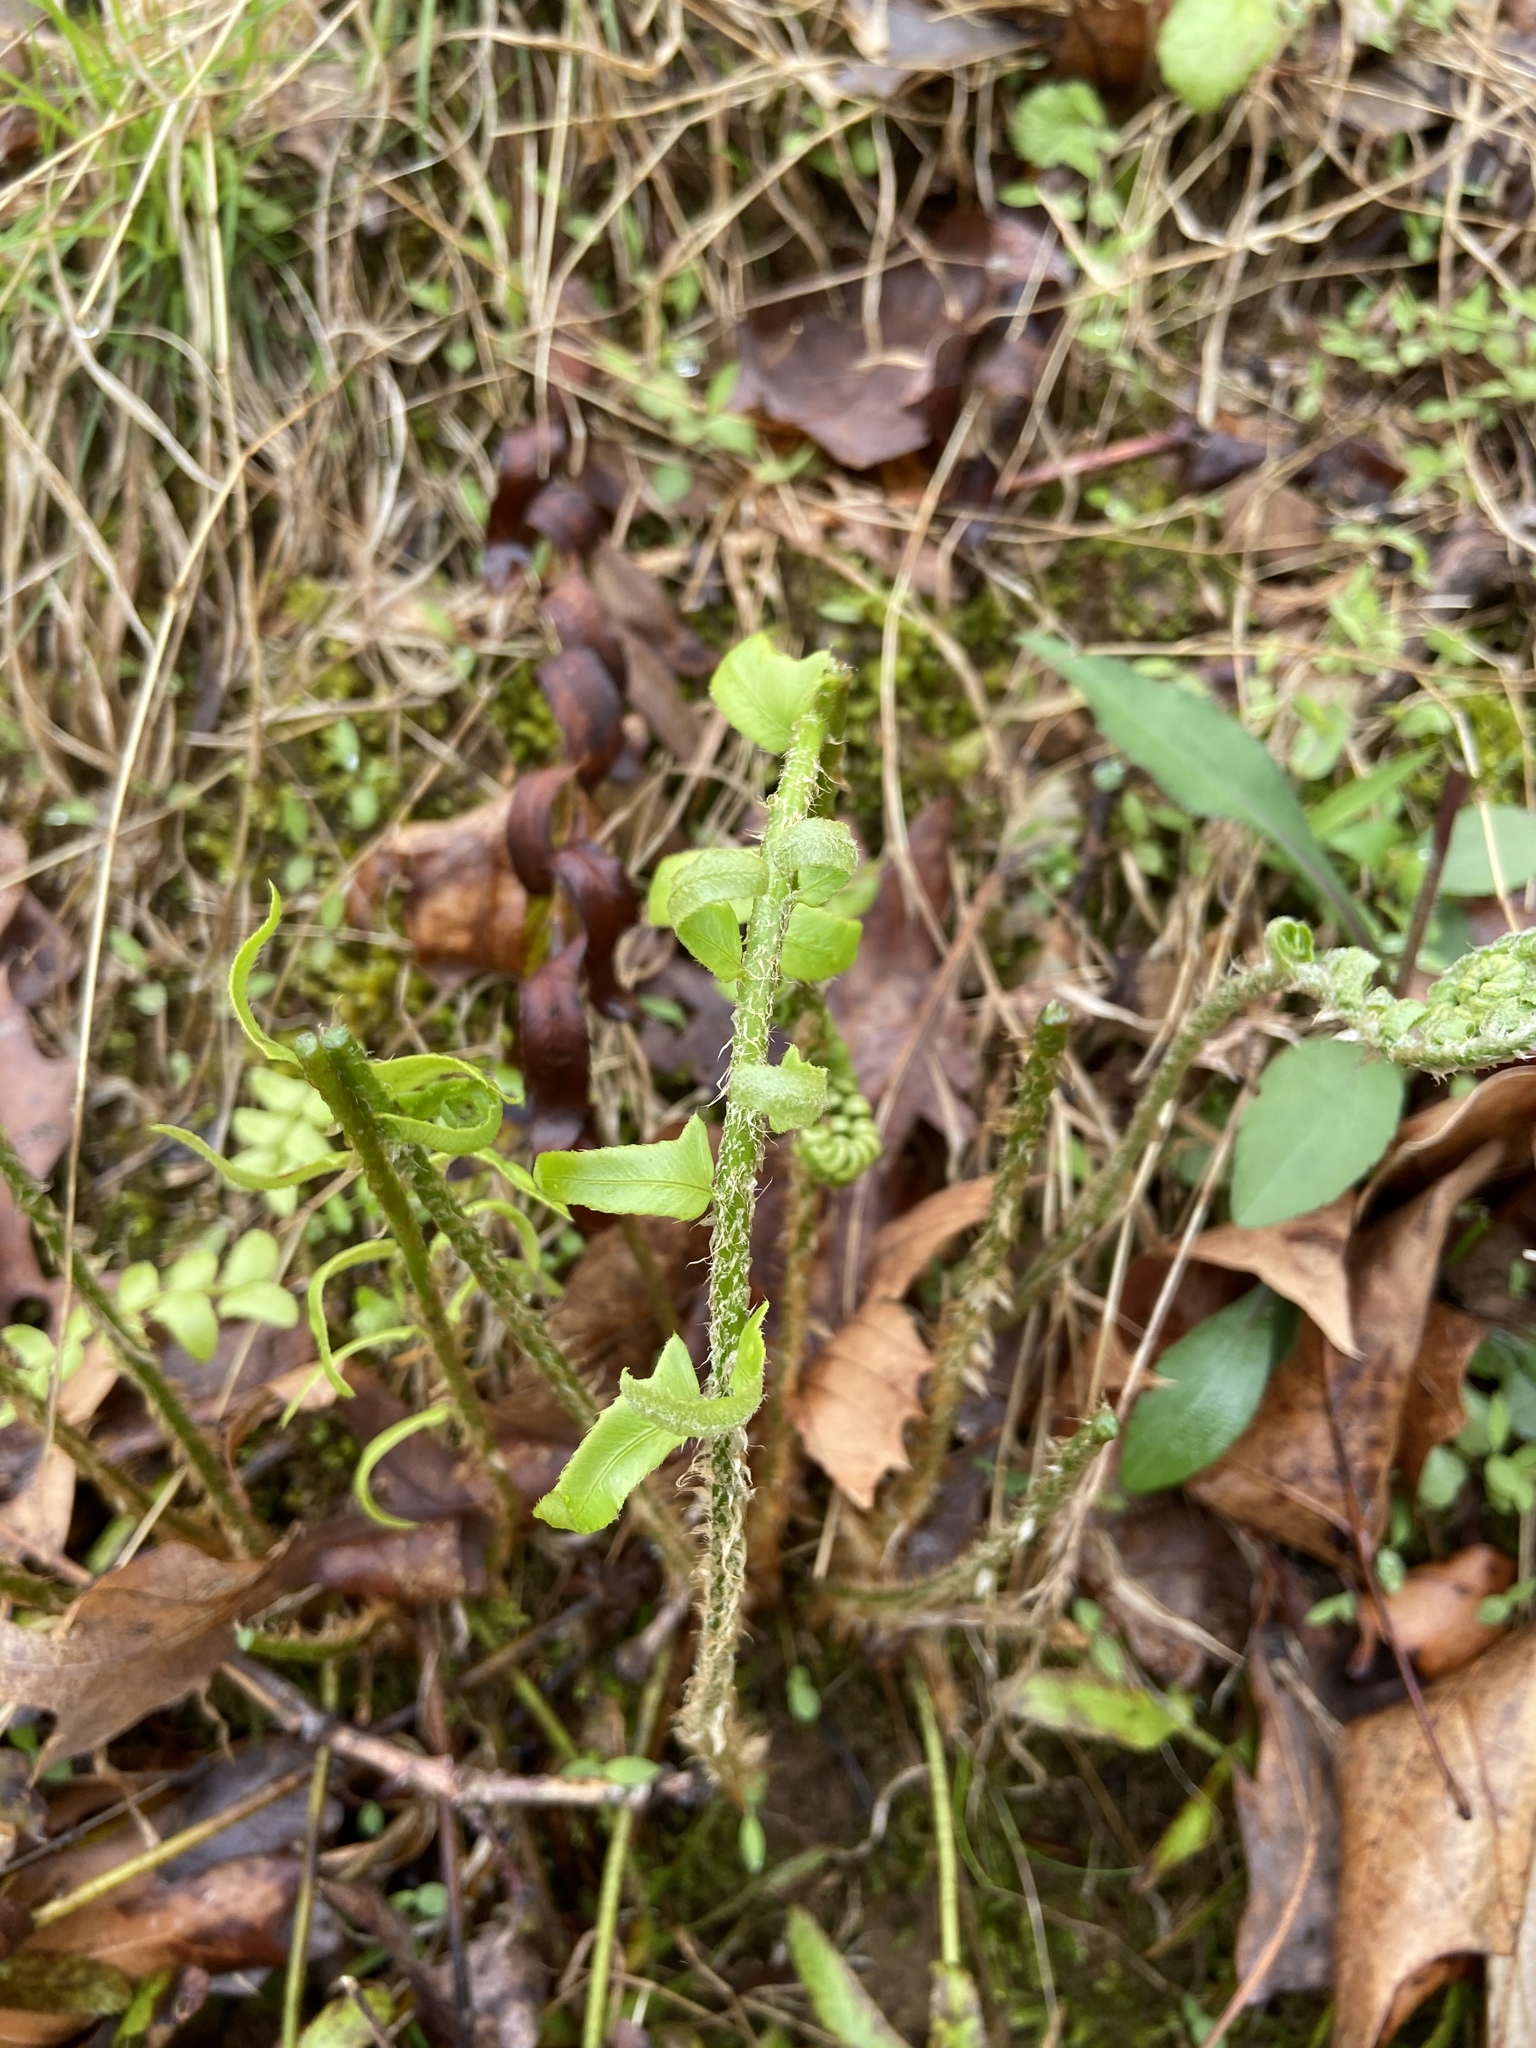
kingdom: Plantae
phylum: Tracheophyta
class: Polypodiopsida
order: Polypodiales
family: Dryopteridaceae
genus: Polystichum
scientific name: Polystichum acrostichoides
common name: Christmas fern
